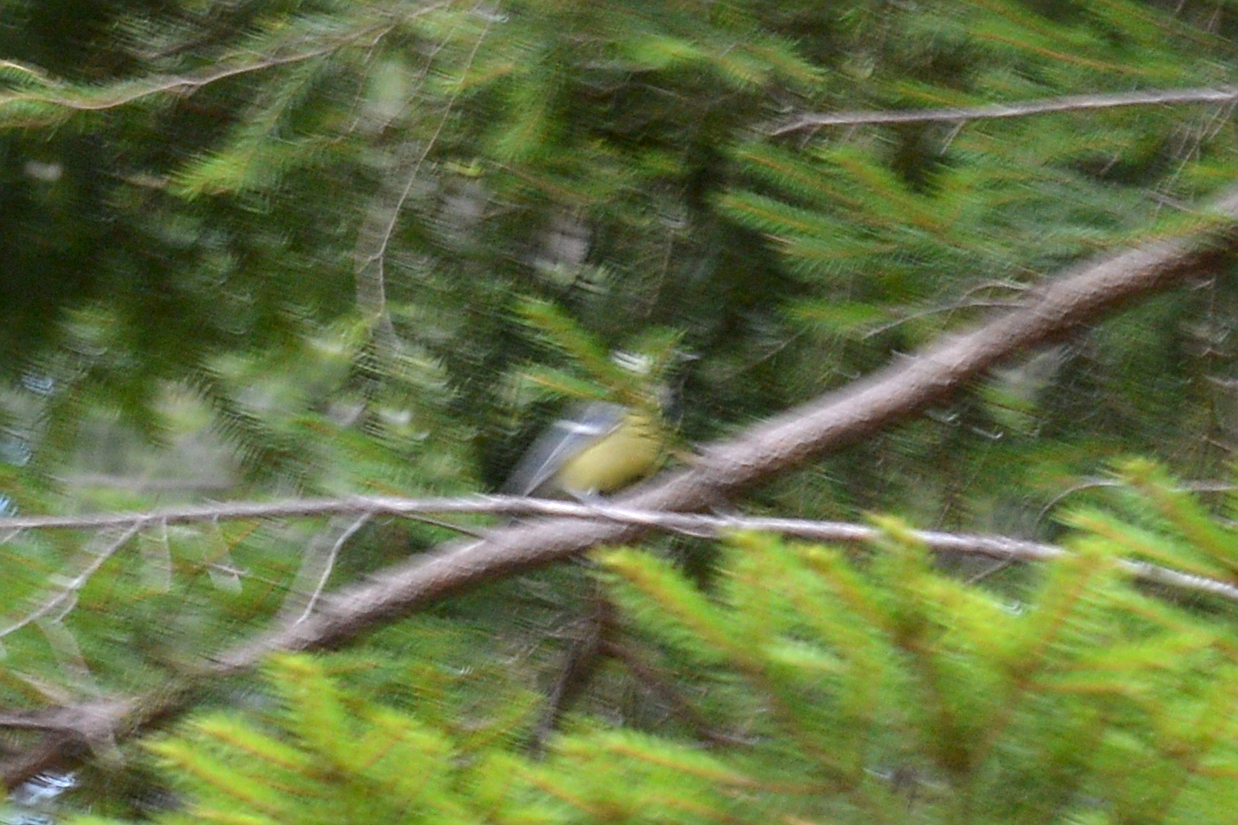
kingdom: Animalia
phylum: Chordata
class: Aves
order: Passeriformes
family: Paridae
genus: Parus
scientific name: Parus major
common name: Great tit
